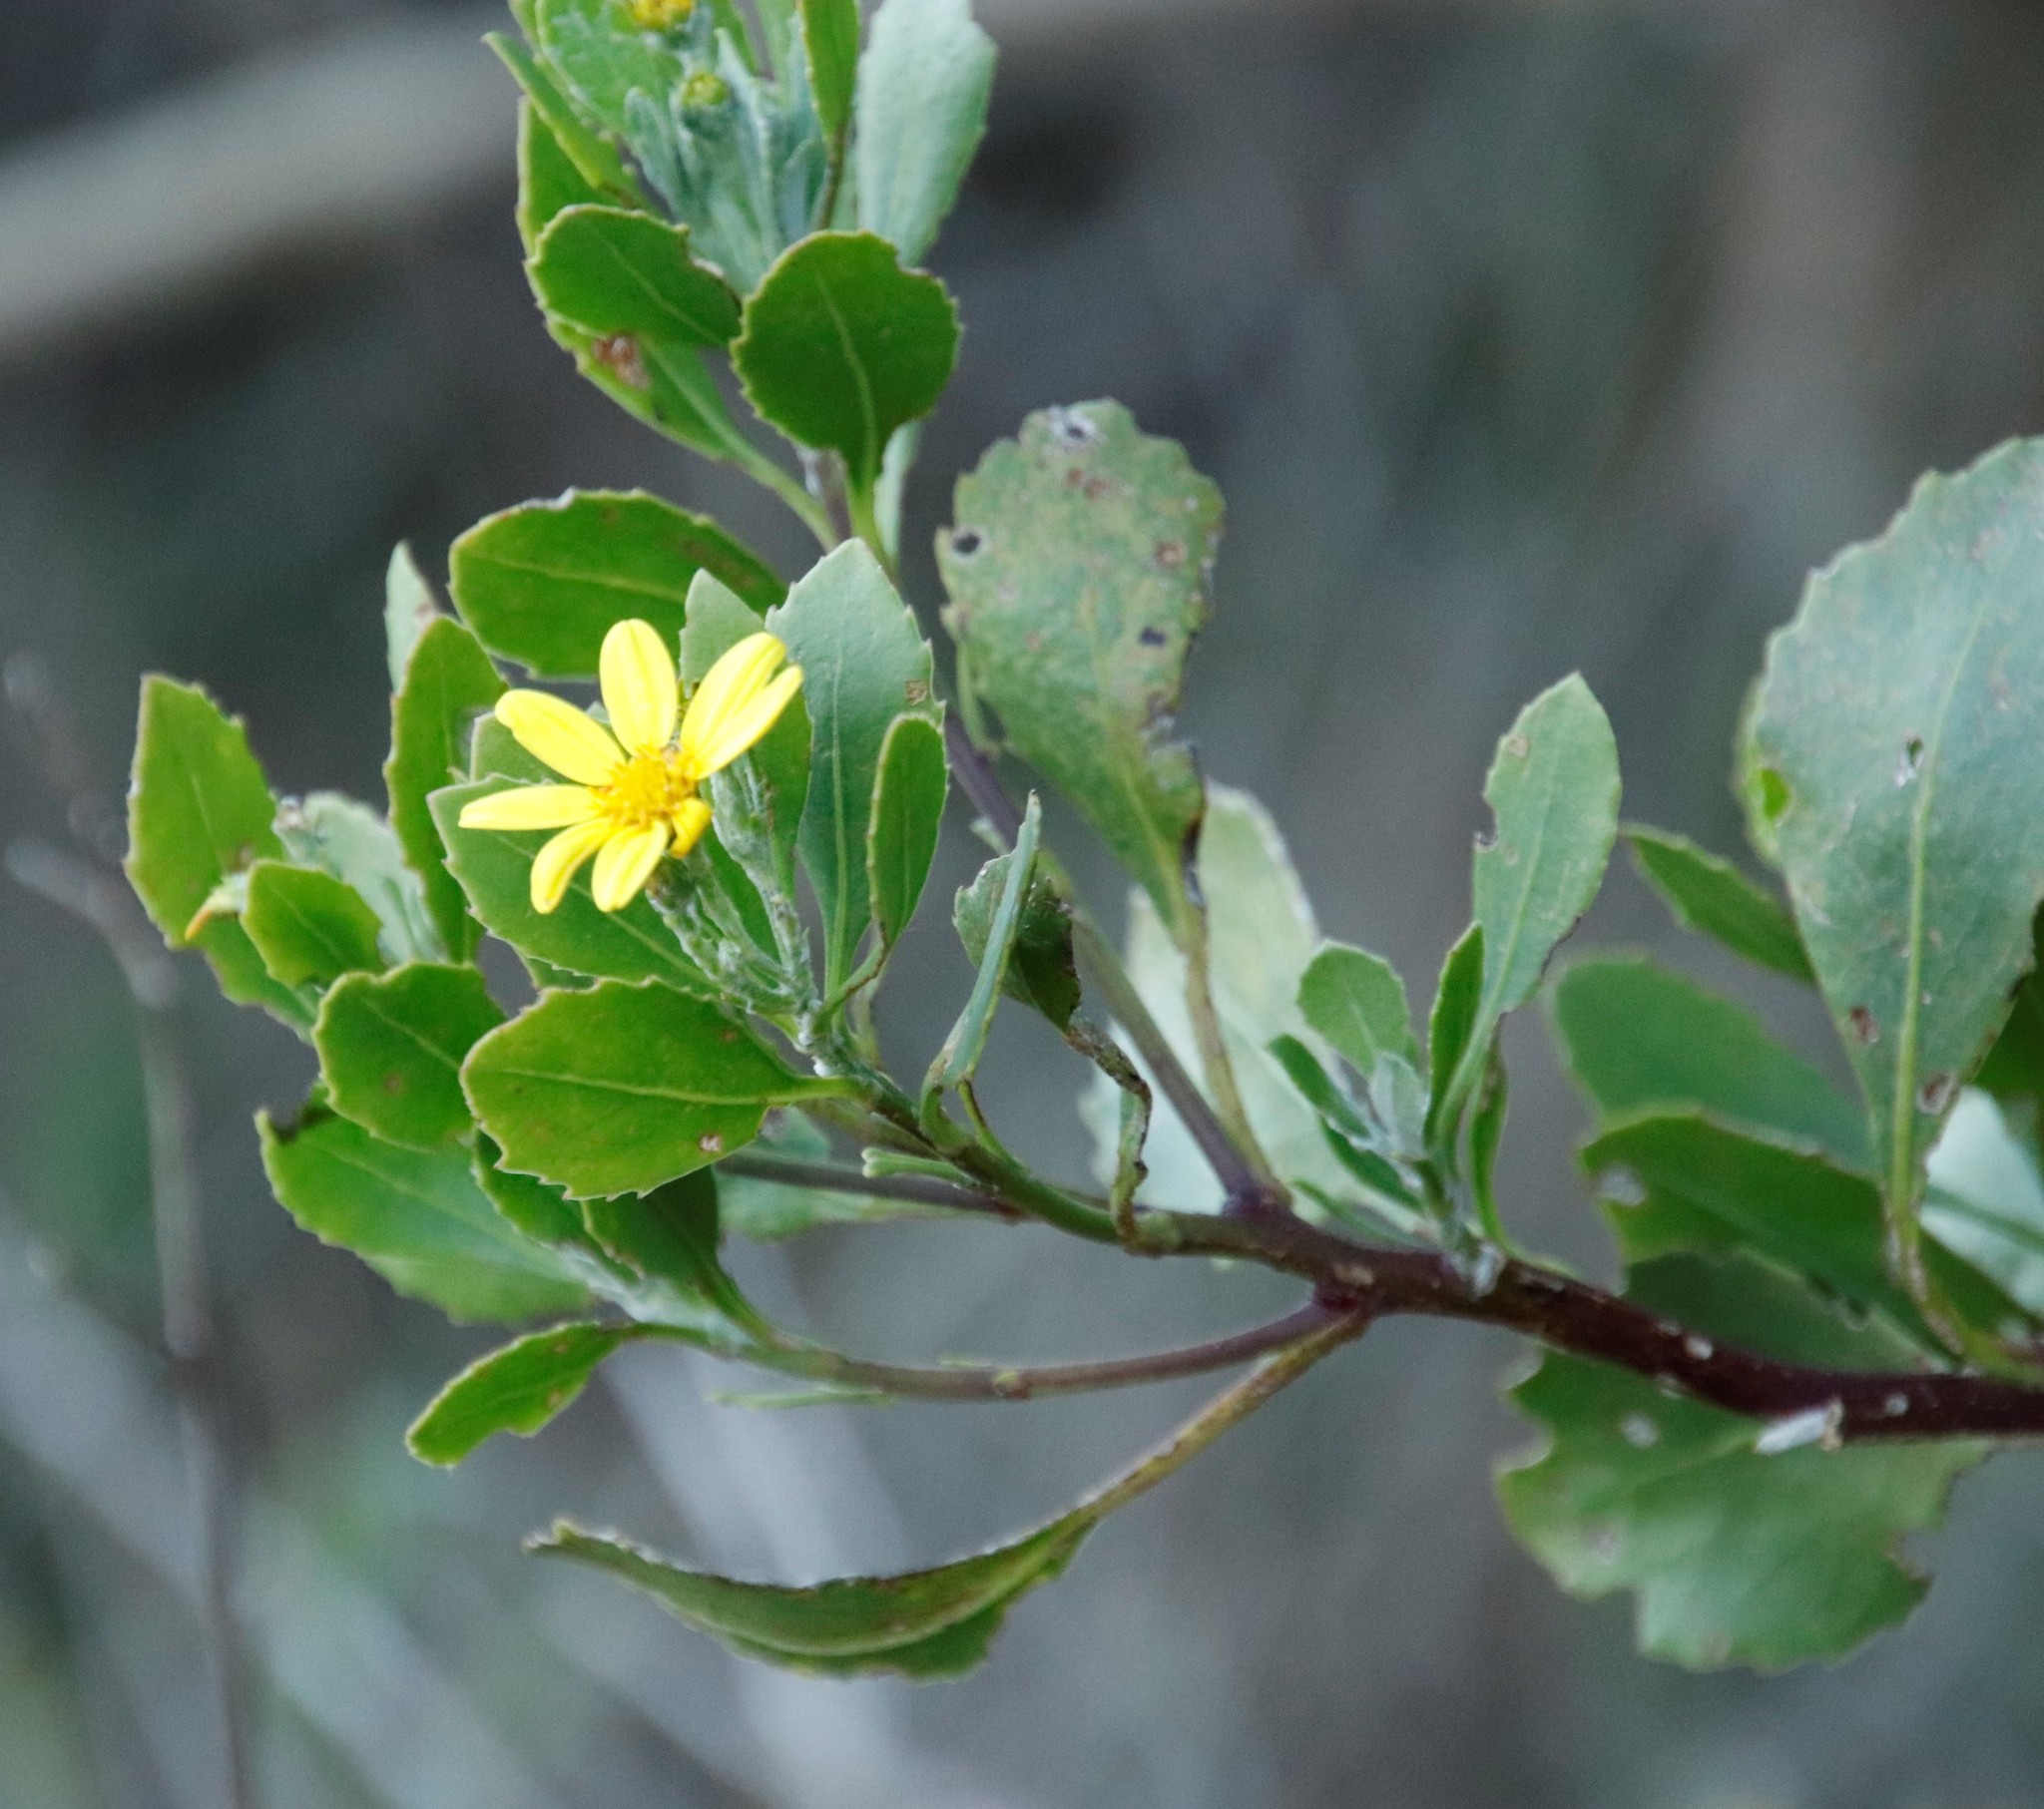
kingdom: Plantae
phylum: Tracheophyta
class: Magnoliopsida
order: Asterales
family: Asteraceae
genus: Osteospermum
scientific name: Osteospermum moniliferum
